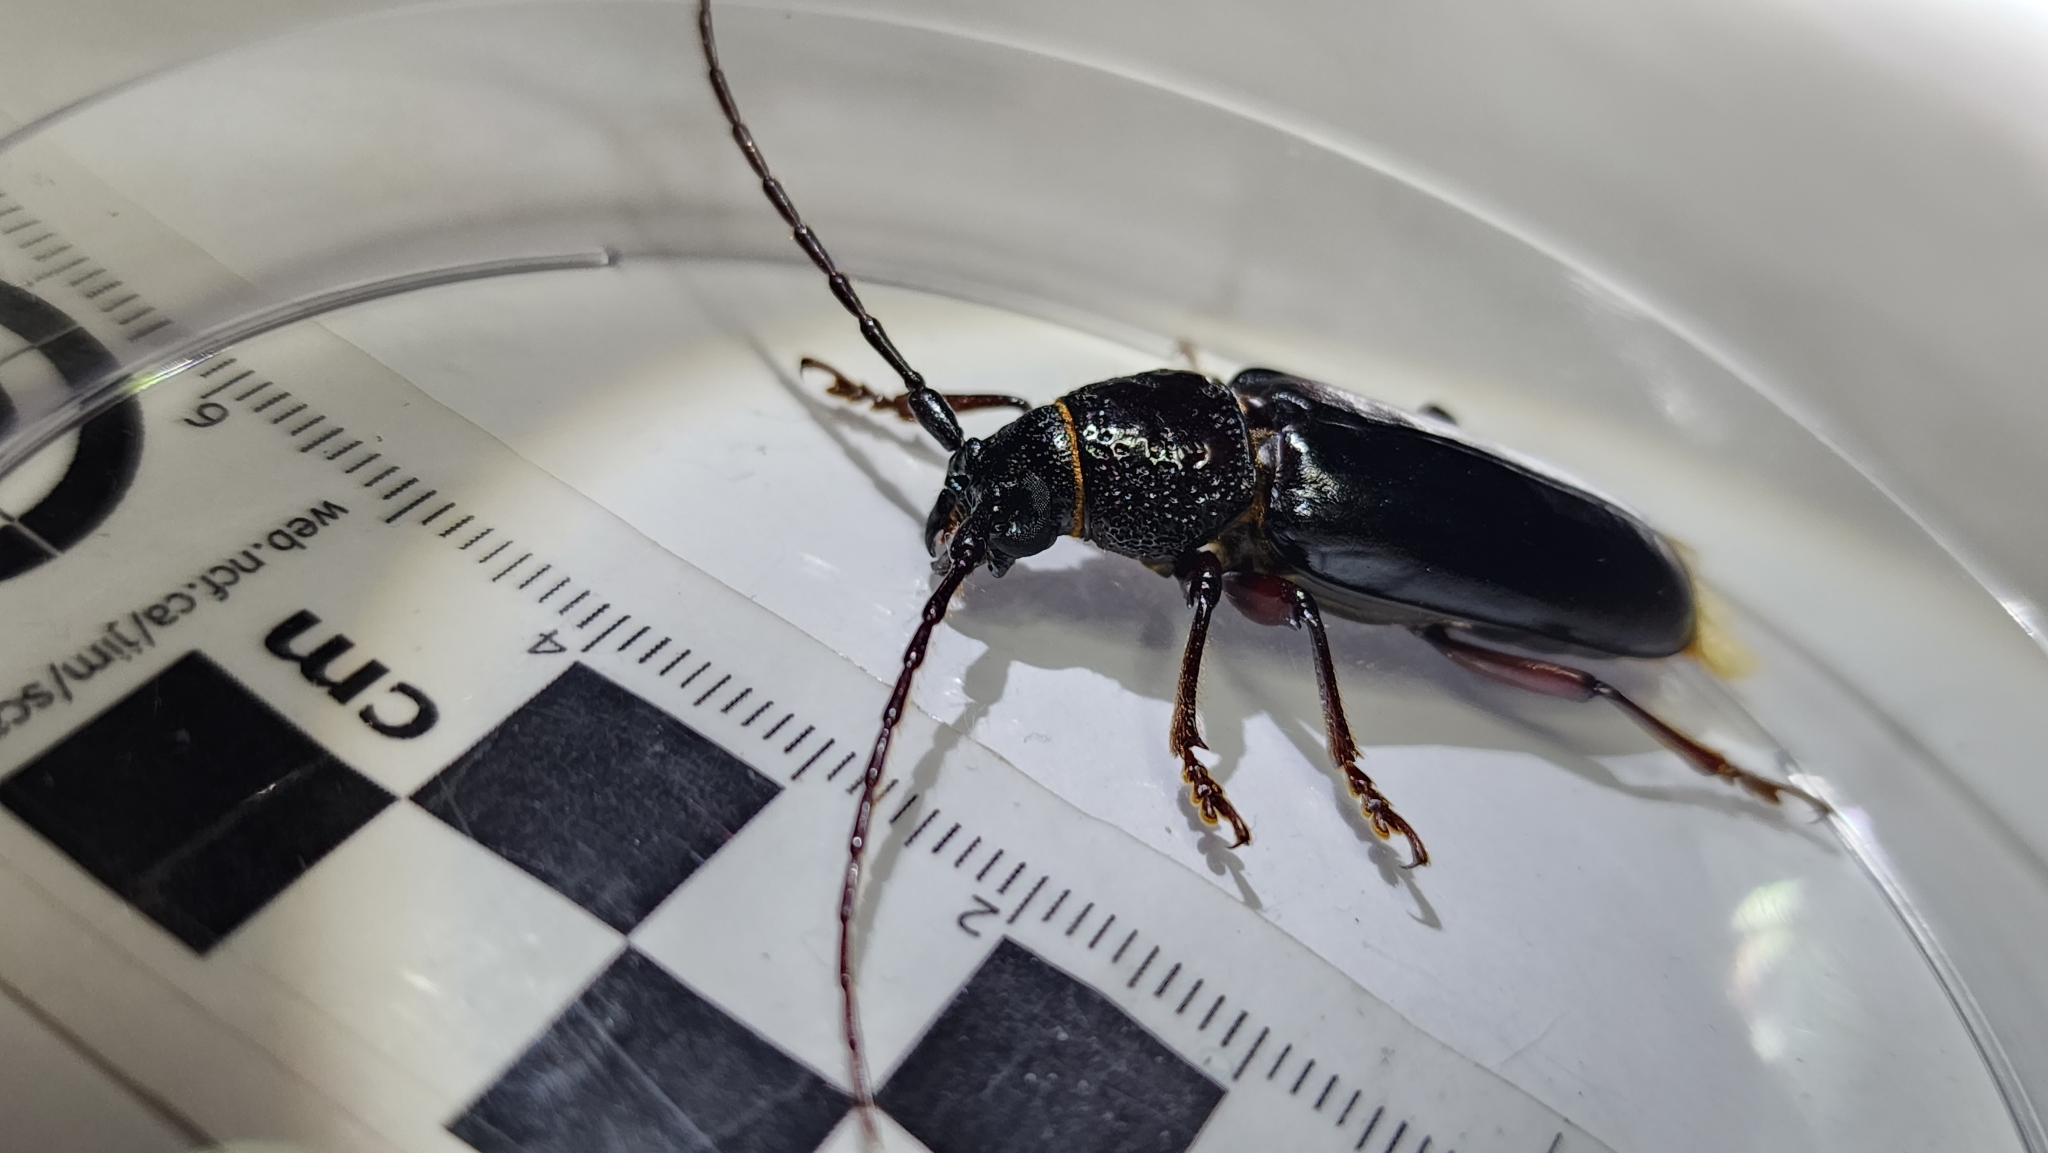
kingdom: Animalia
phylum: Arthropoda
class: Insecta
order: Coleoptera
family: Cerambycidae
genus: Butherium
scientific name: Butherium erythropus
